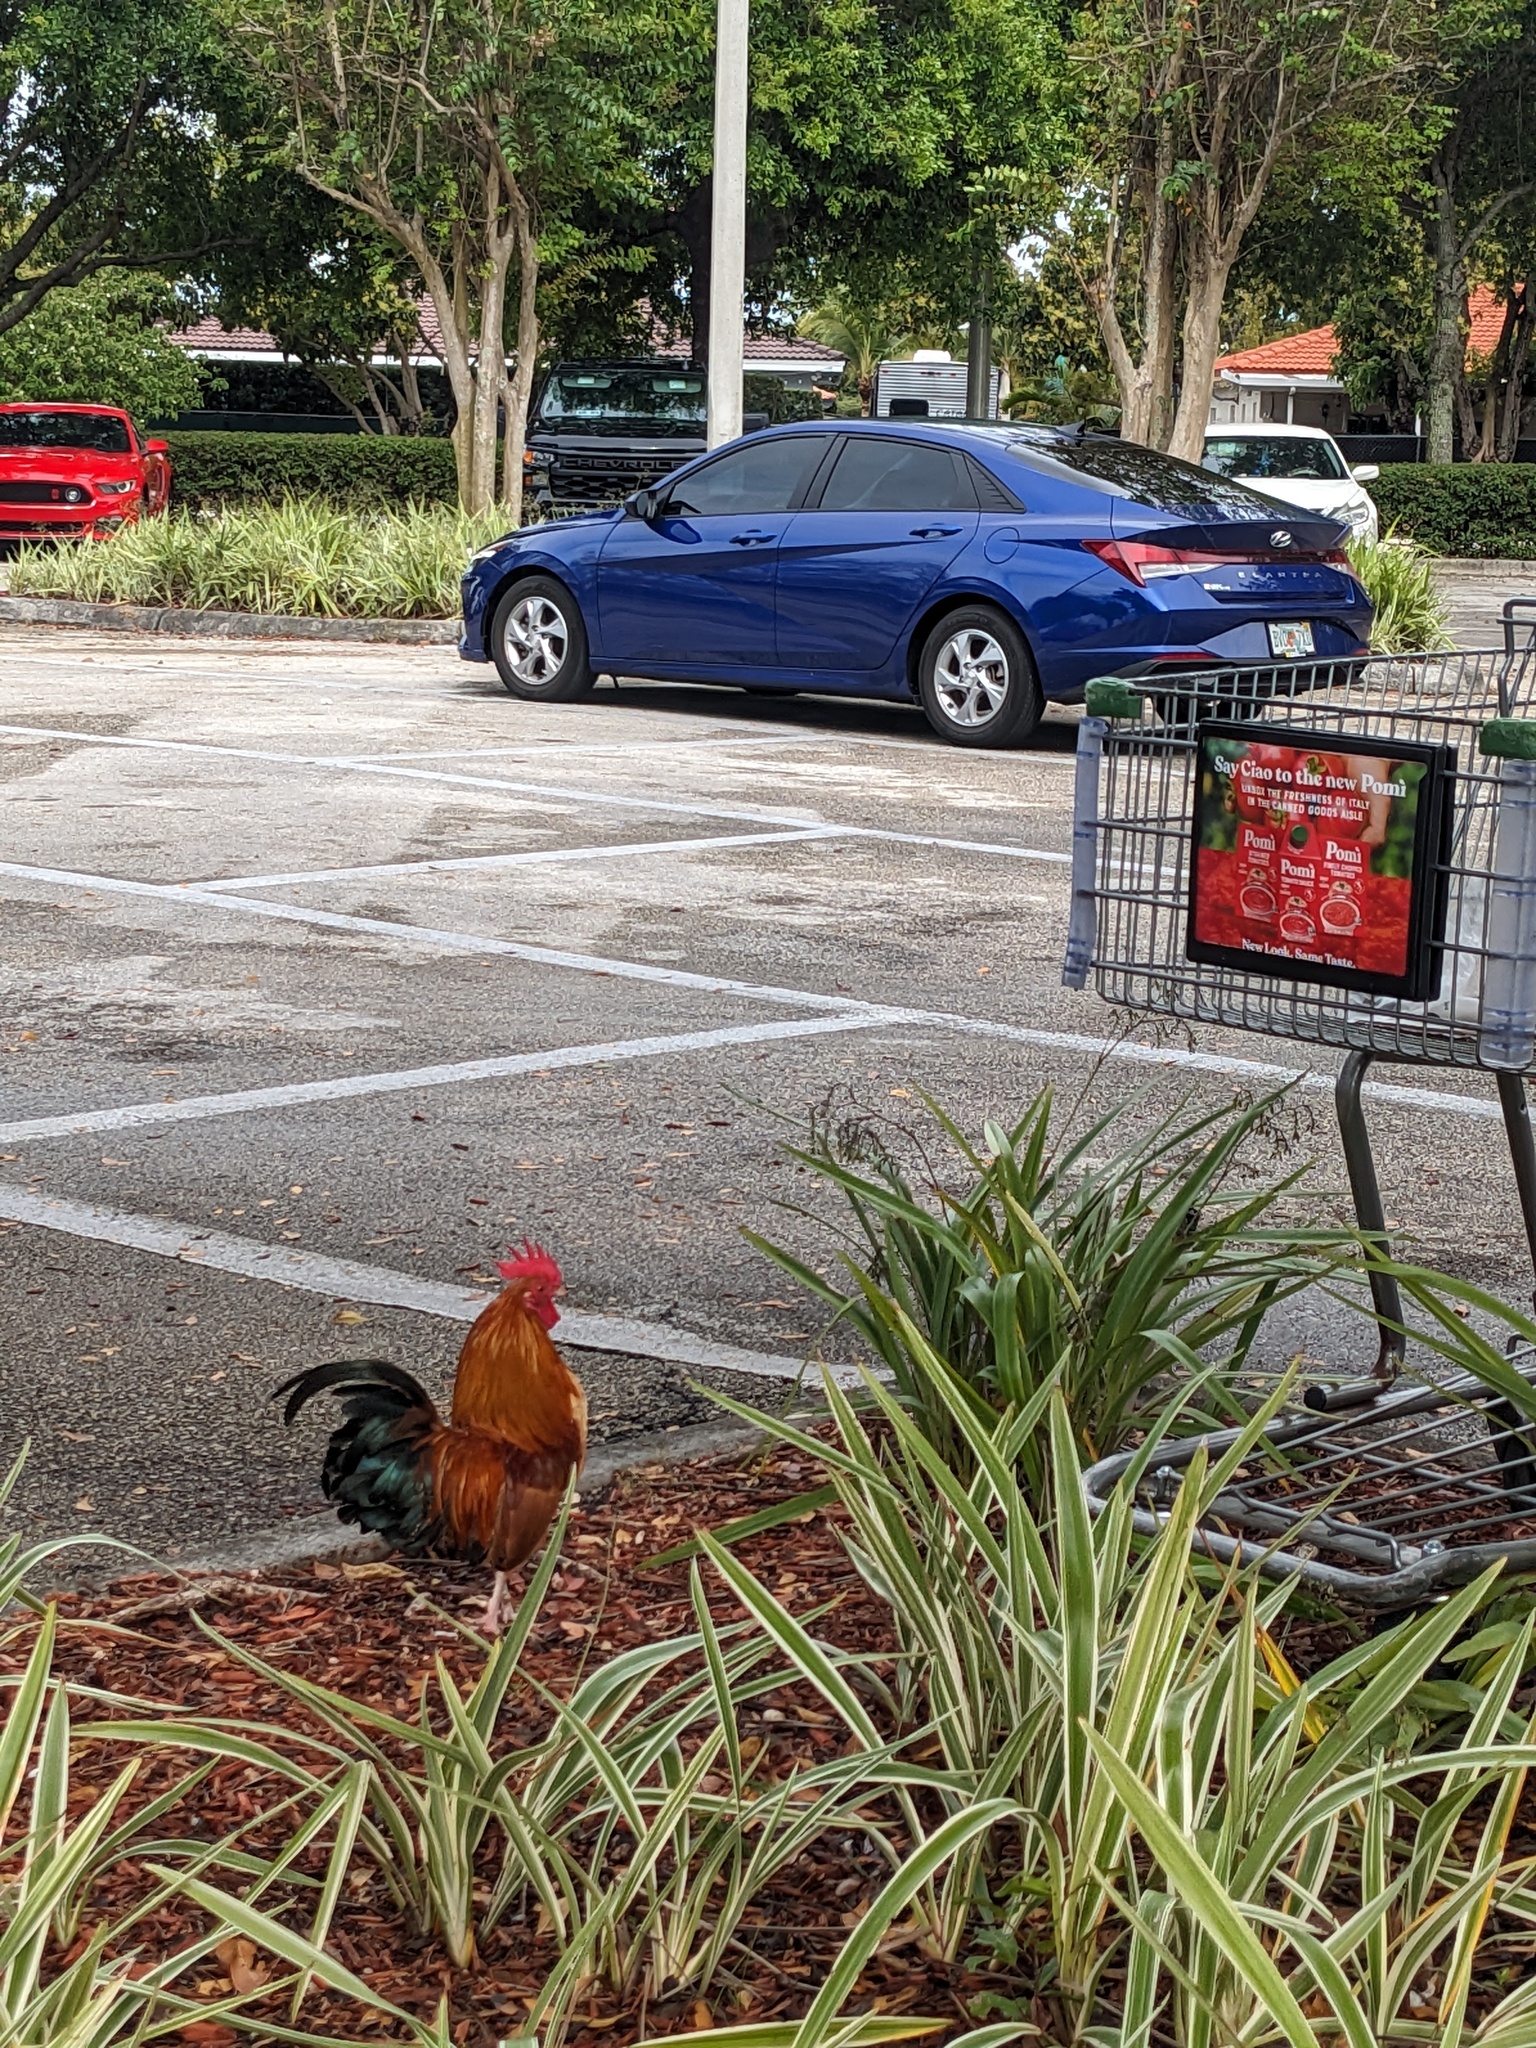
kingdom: Animalia
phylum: Chordata
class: Aves
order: Galliformes
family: Phasianidae
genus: Gallus
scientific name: Gallus gallus
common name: Red junglefowl
